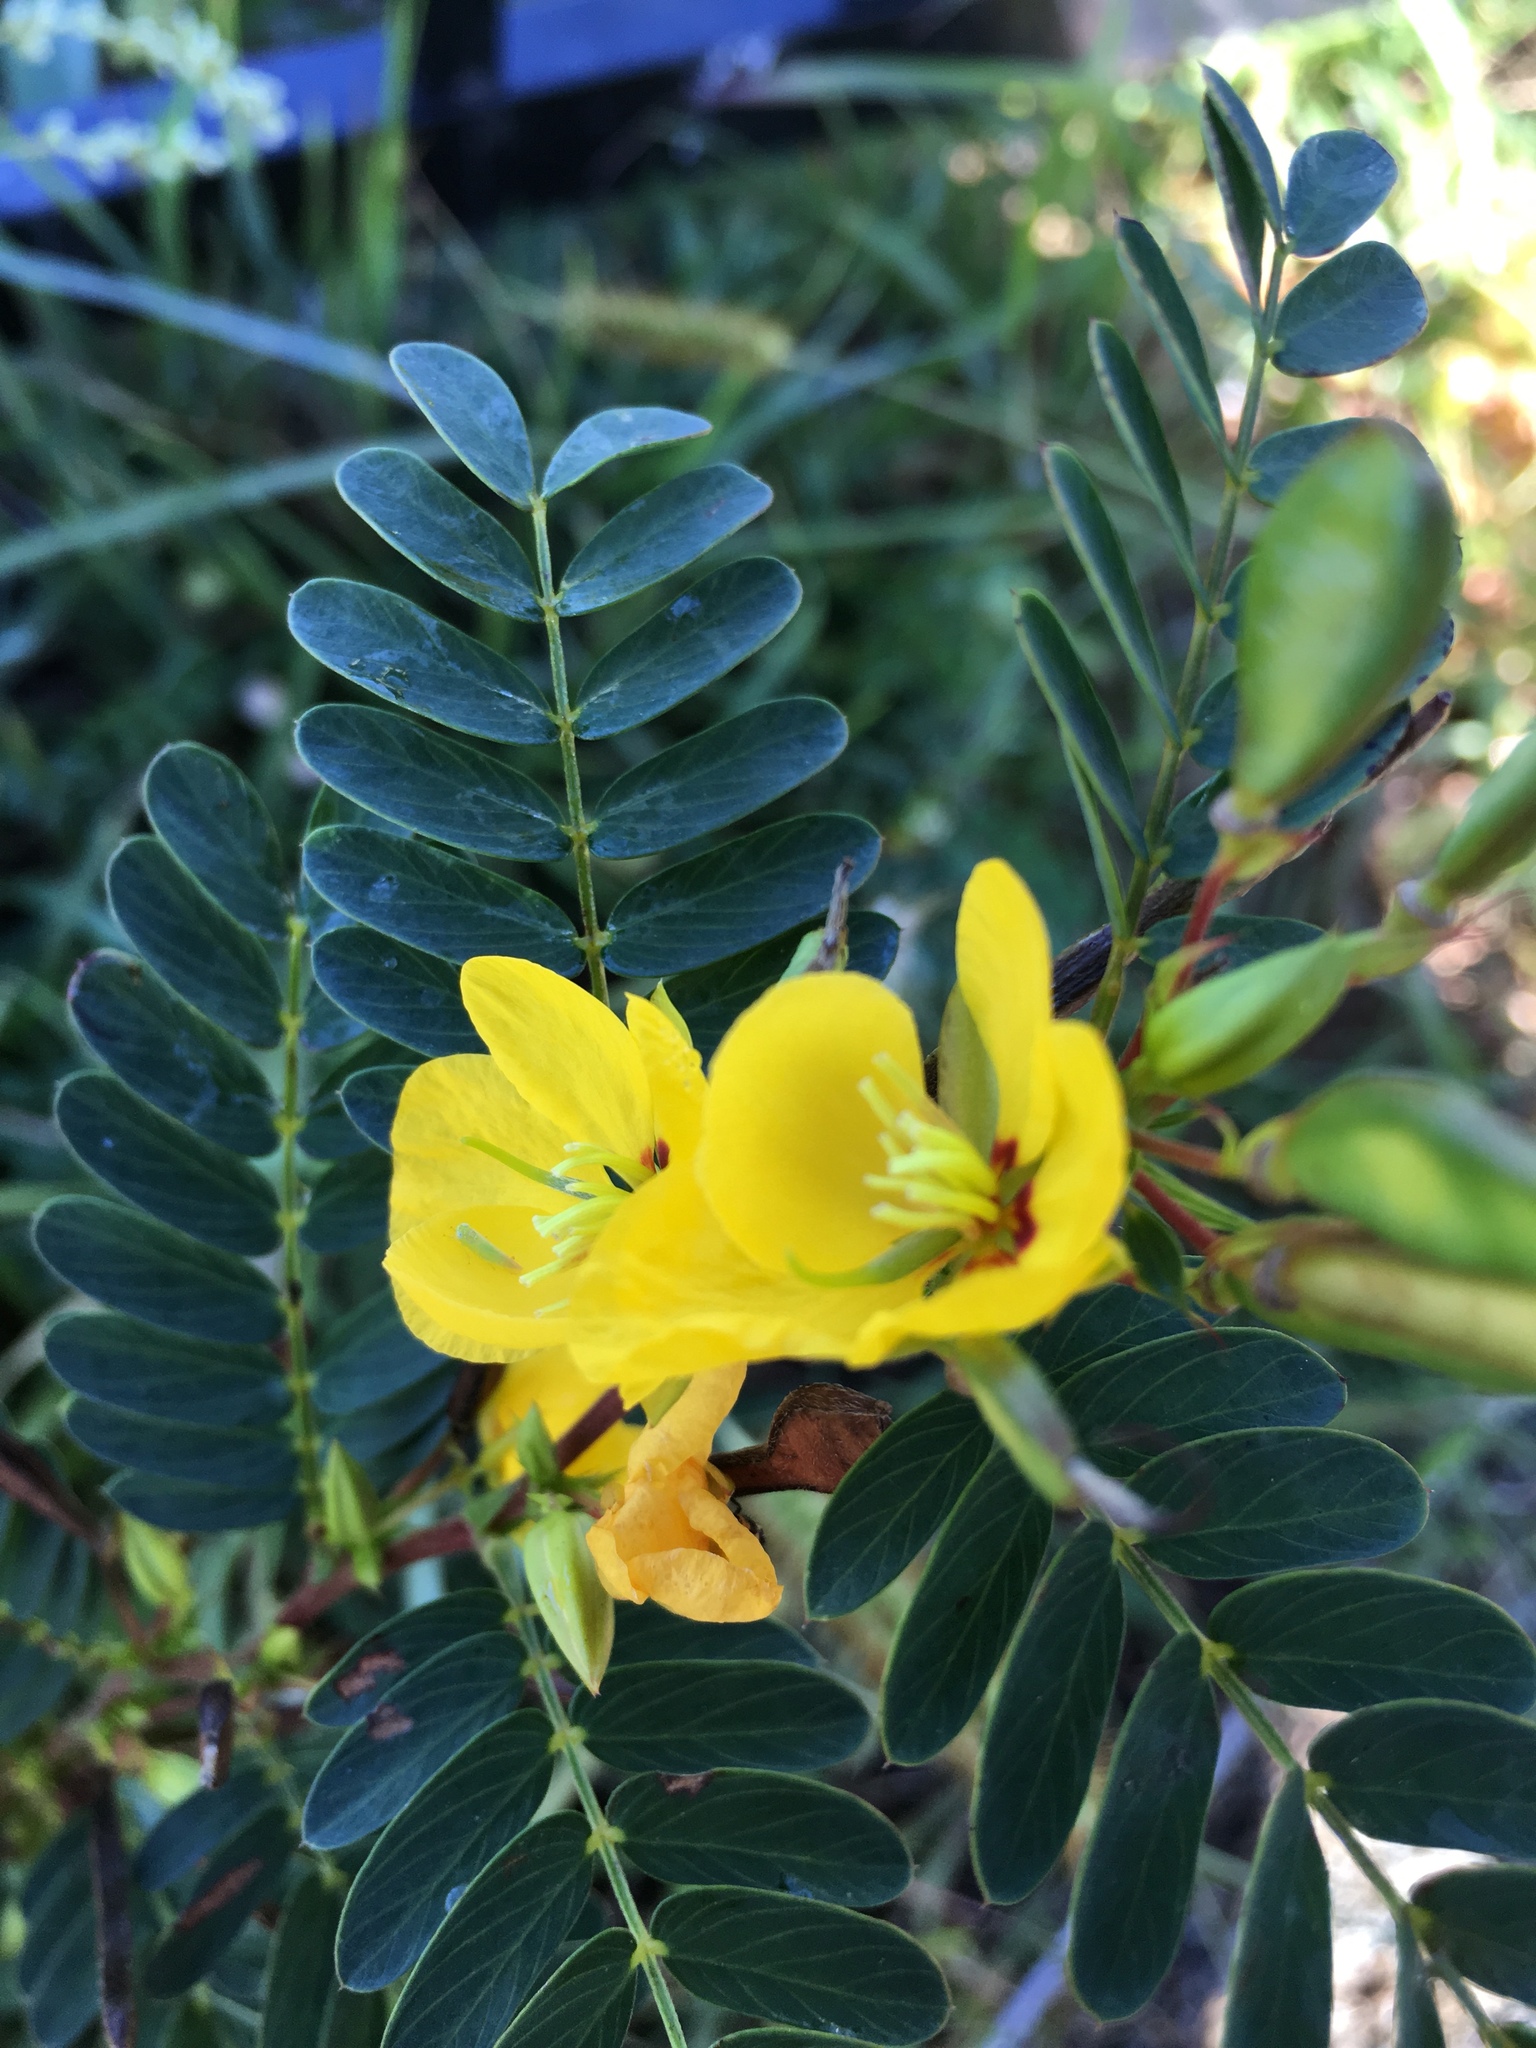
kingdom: Plantae
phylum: Tracheophyta
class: Magnoliopsida
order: Fabales
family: Fabaceae
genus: Chamaecrista
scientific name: Chamaecrista fasciculata
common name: Golden cassia
